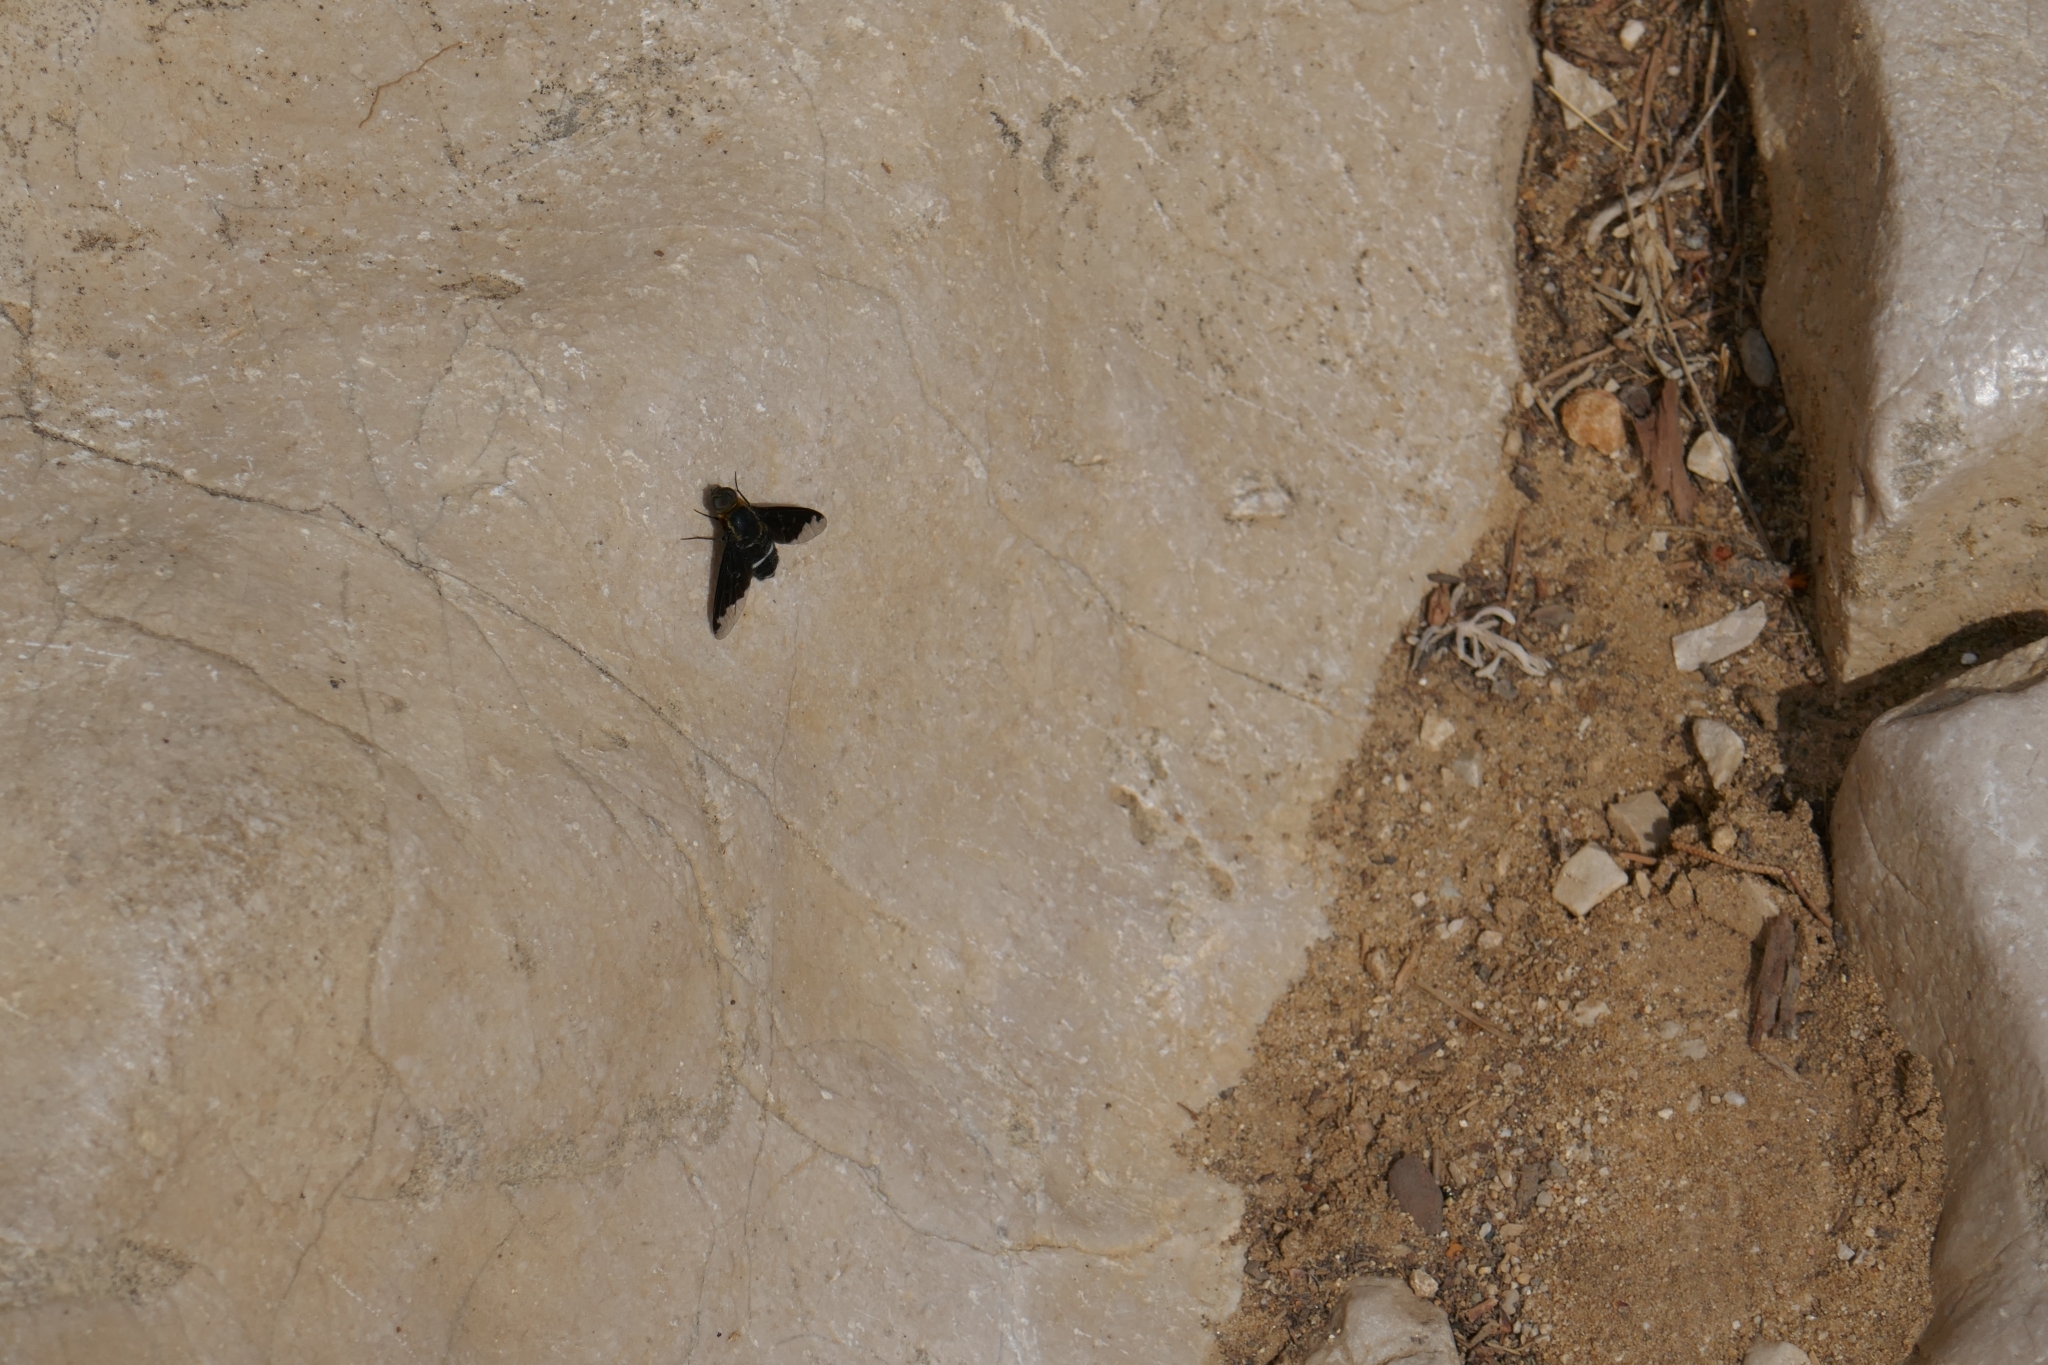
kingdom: Animalia
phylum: Arthropoda
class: Insecta
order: Diptera
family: Bombyliidae
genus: Hemipenthes
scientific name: Hemipenthes velutina
